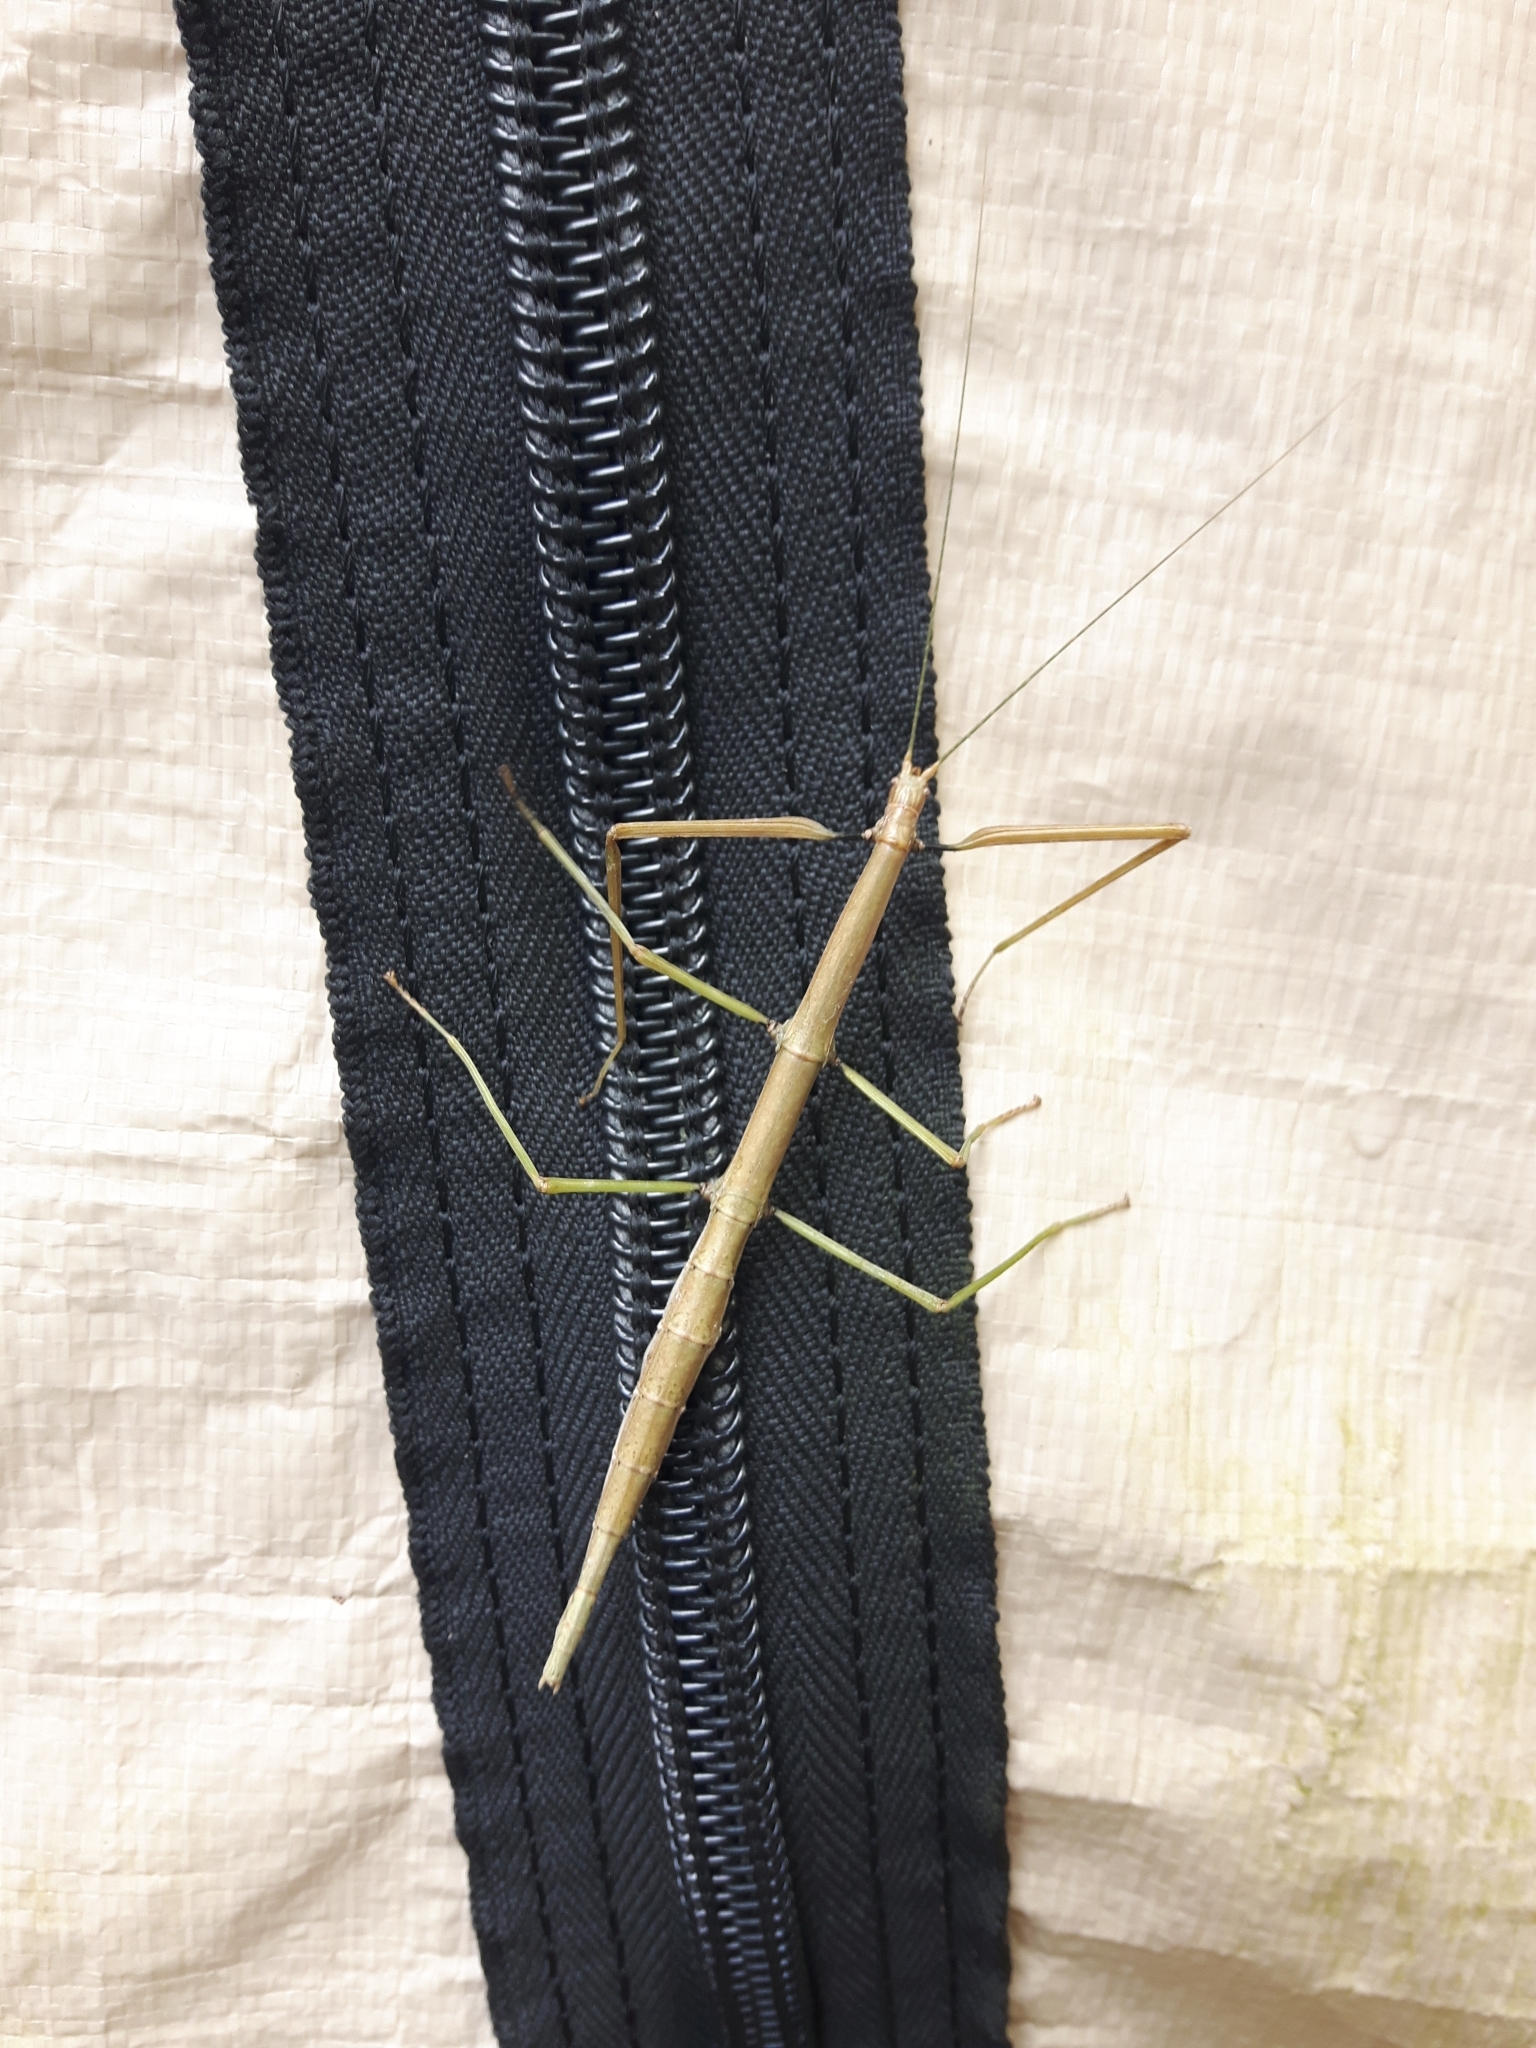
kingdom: Animalia
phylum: Arthropoda
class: Insecta
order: Phasmida
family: Diapheromeridae
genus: Diapheromera
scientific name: Diapheromera femorata
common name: Common american walkingstick
